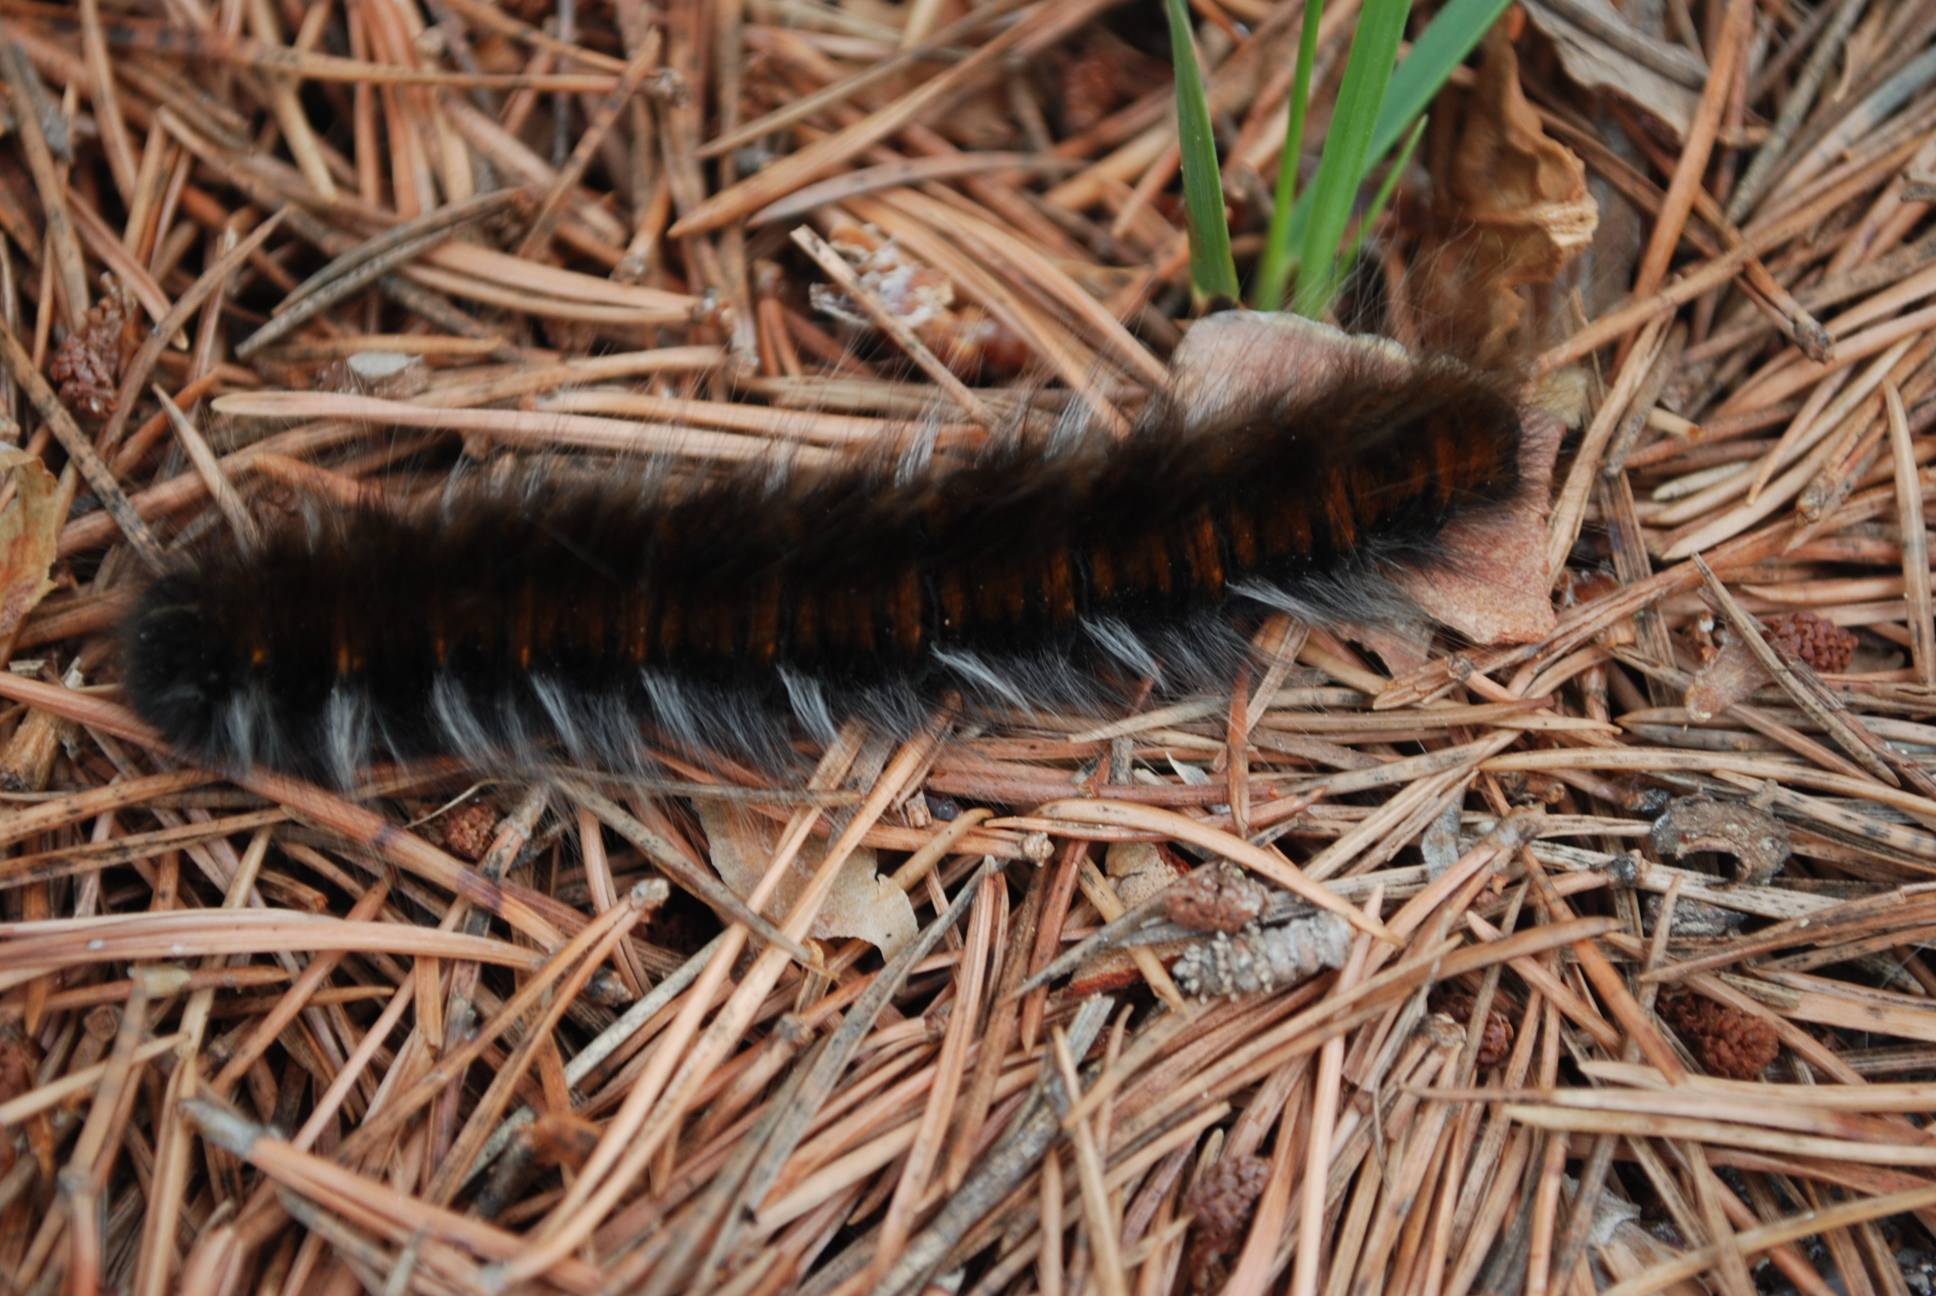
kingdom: Animalia
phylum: Arthropoda
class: Insecta
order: Lepidoptera
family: Lasiocampidae
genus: Macrothylacia
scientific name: Macrothylacia rubi
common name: Fox moth
